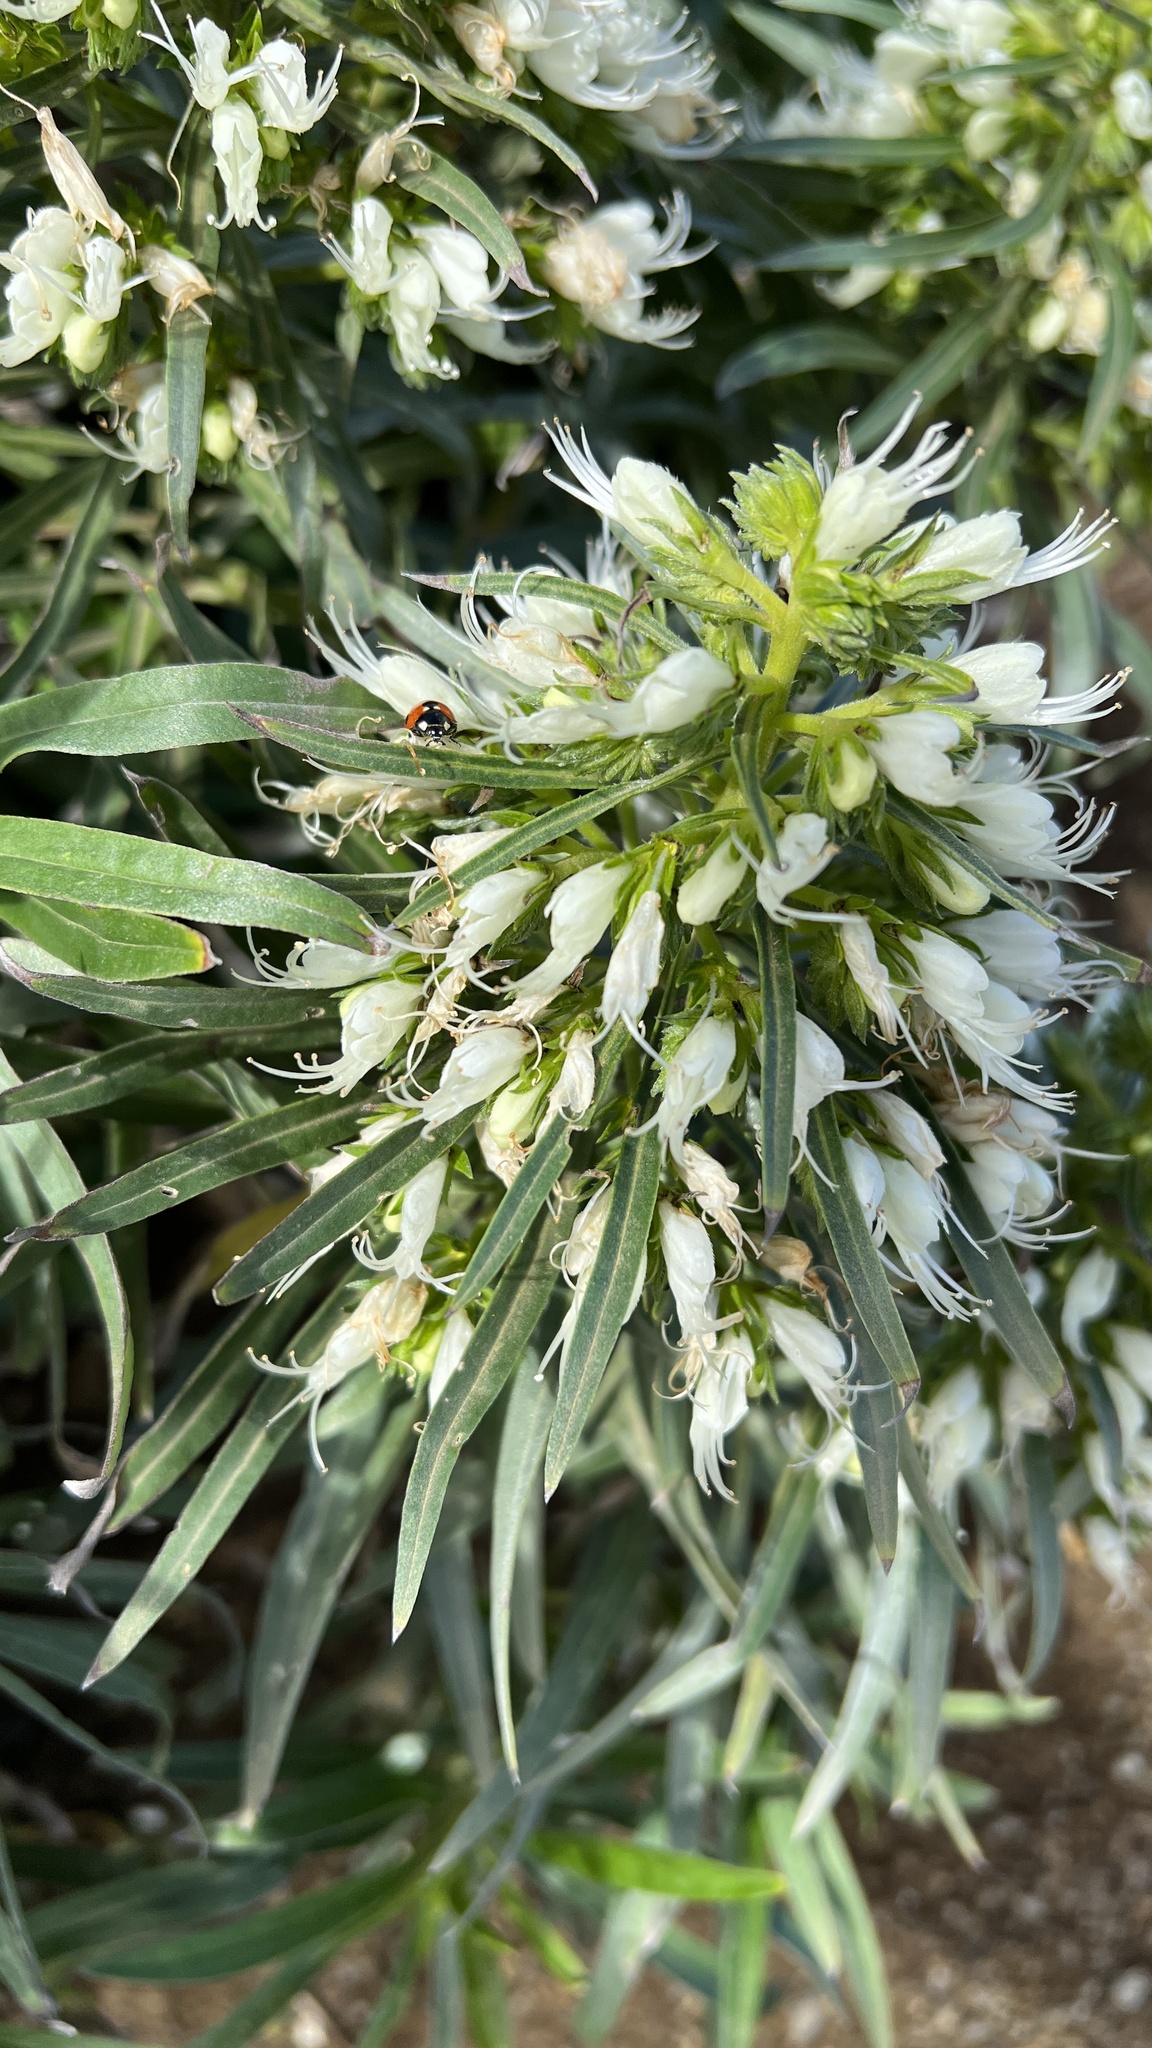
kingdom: Plantae
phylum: Tracheophyta
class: Magnoliopsida
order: Boraginales
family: Boraginaceae
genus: Echium
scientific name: Echium leucophaeum
